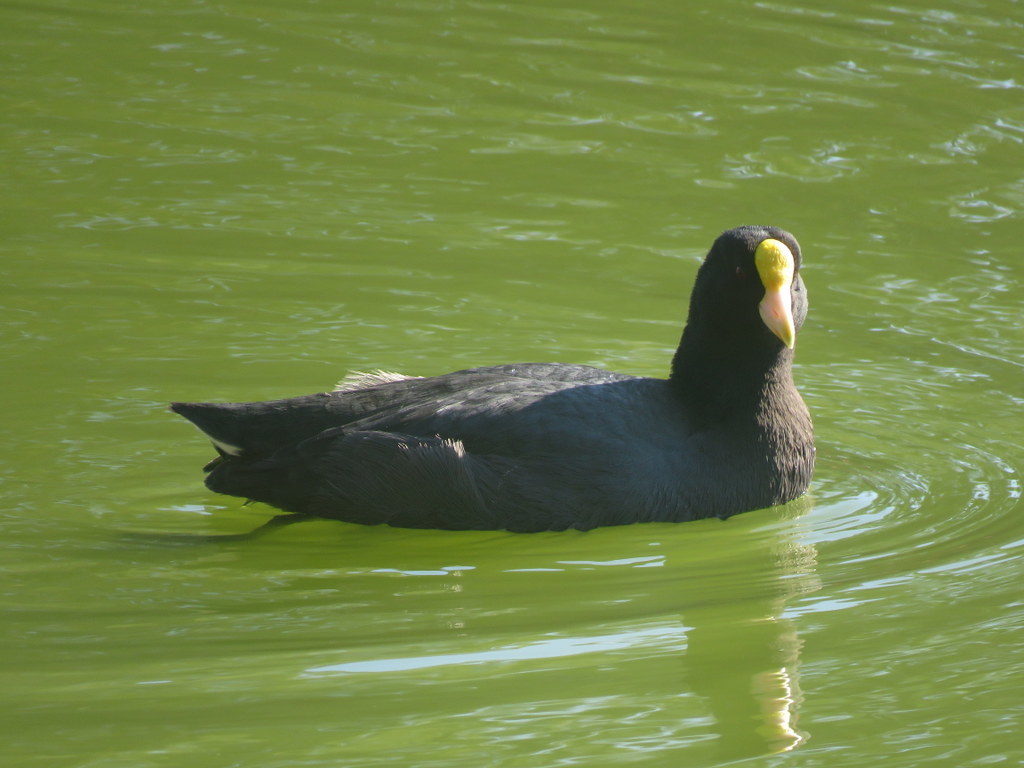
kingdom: Animalia
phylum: Chordata
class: Aves
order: Gruiformes
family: Rallidae
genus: Fulica
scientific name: Fulica leucoptera
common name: White-winged coot
